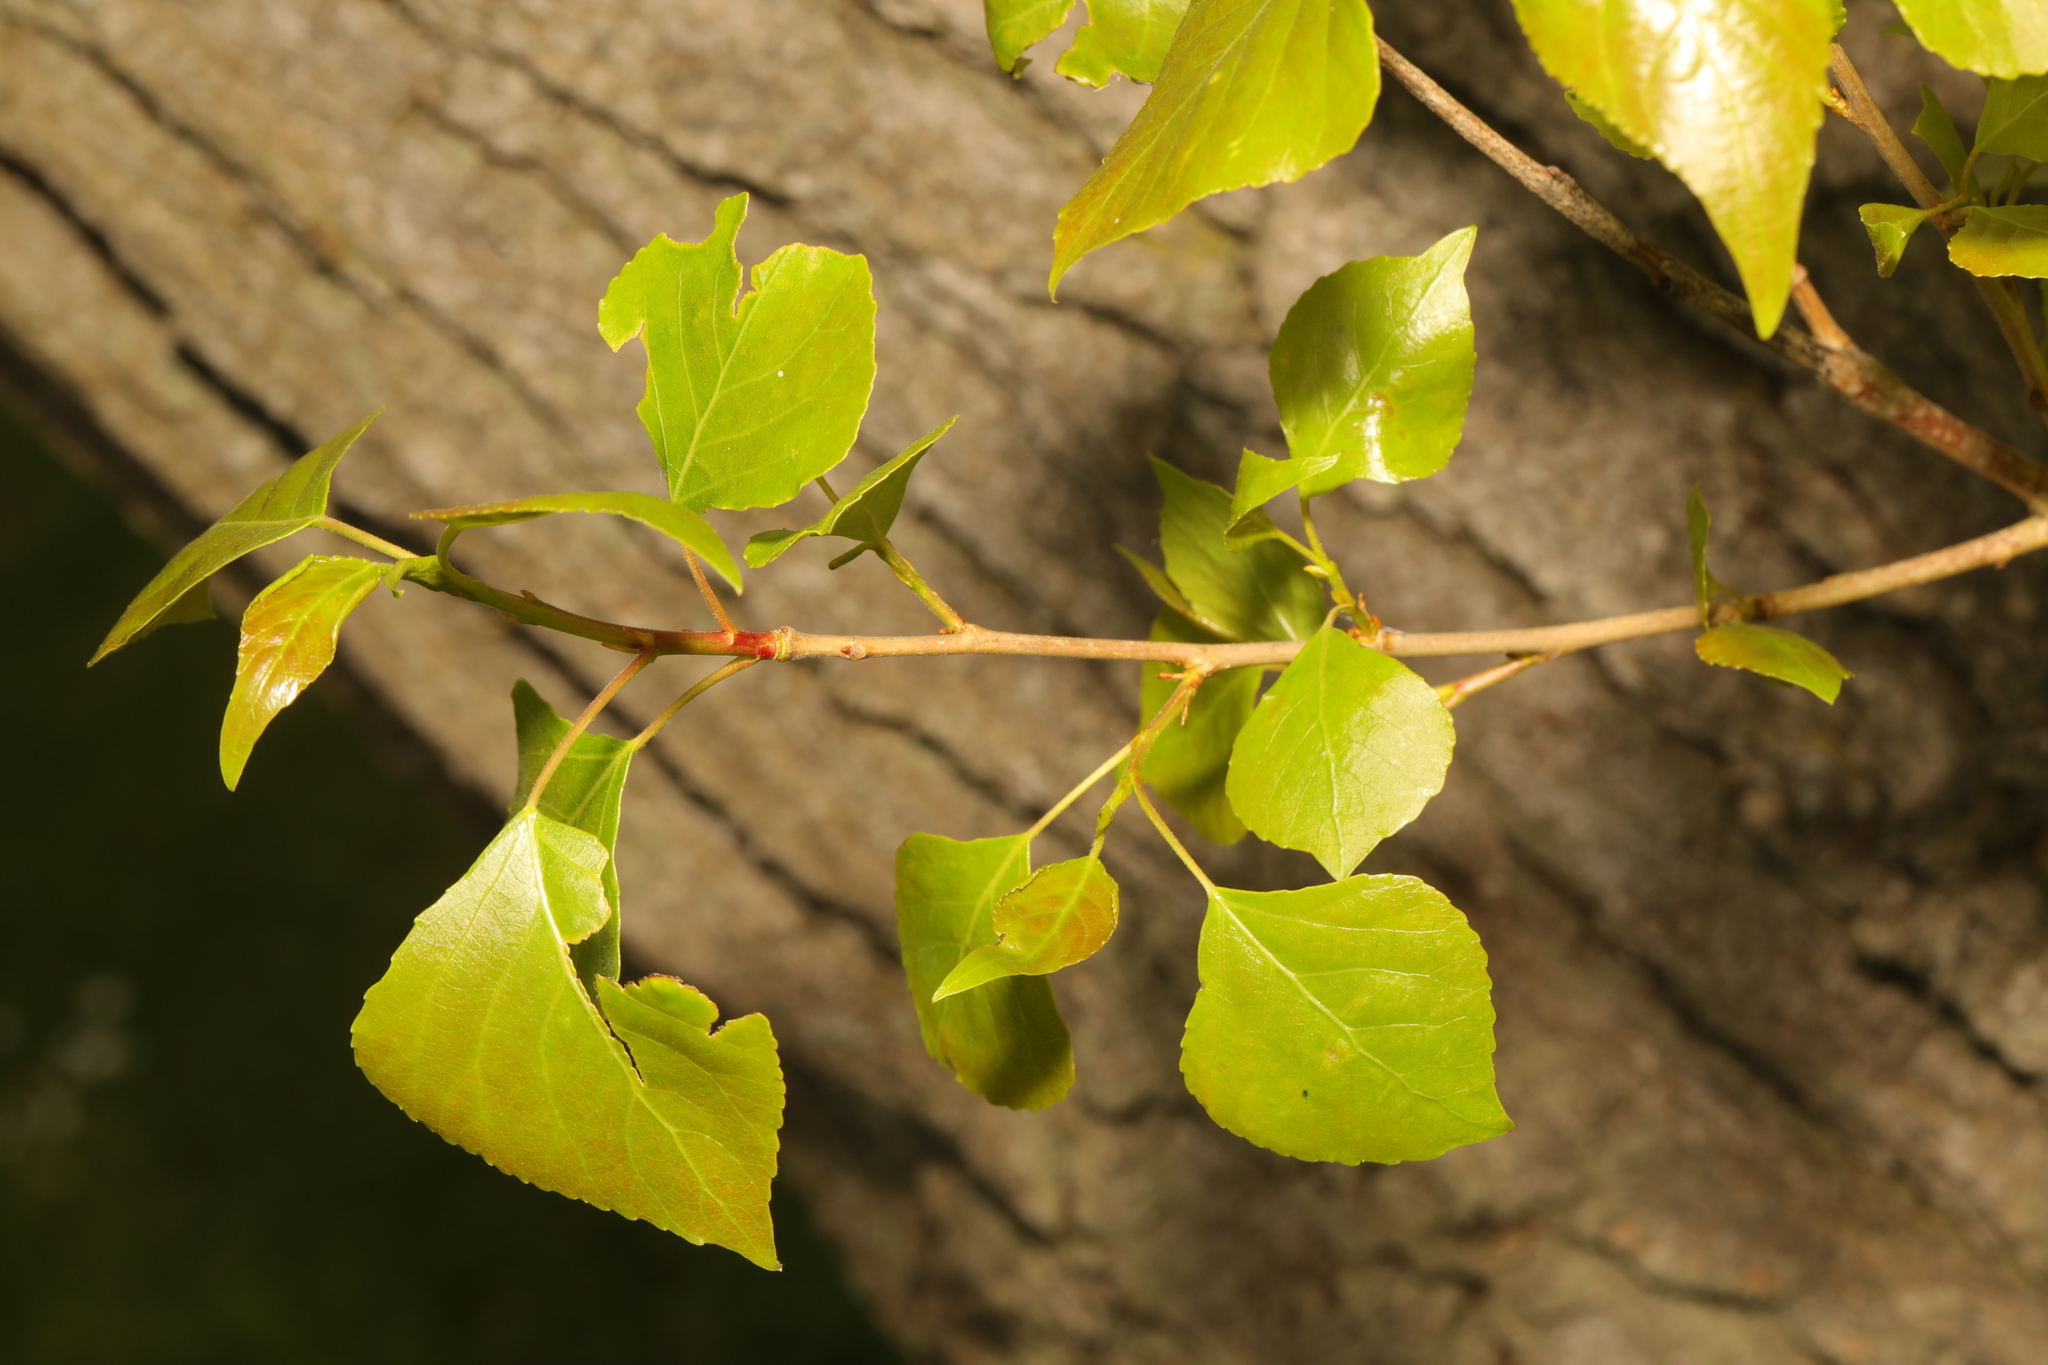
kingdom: Plantae
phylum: Tracheophyta
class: Magnoliopsida
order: Malpighiales
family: Salicaceae
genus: Populus
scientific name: Populus nigra
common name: Black poplar
